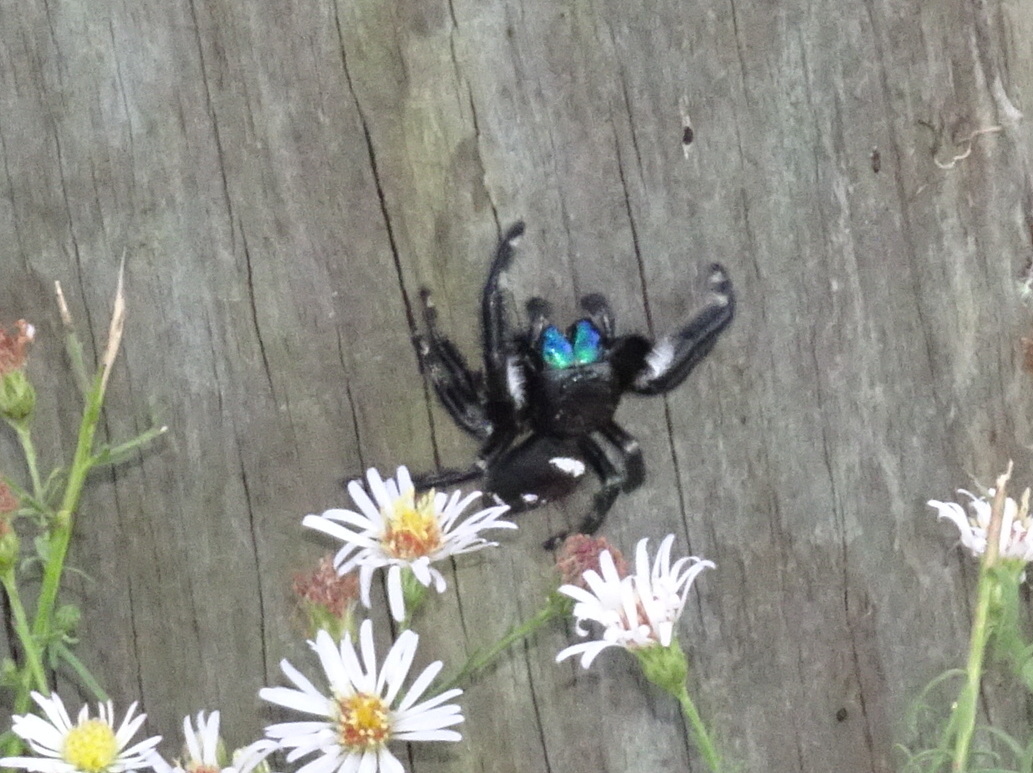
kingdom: Animalia
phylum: Arthropoda
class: Arachnida
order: Araneae
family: Salticidae
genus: Phidippus
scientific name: Phidippus regius
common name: Regal jumper
